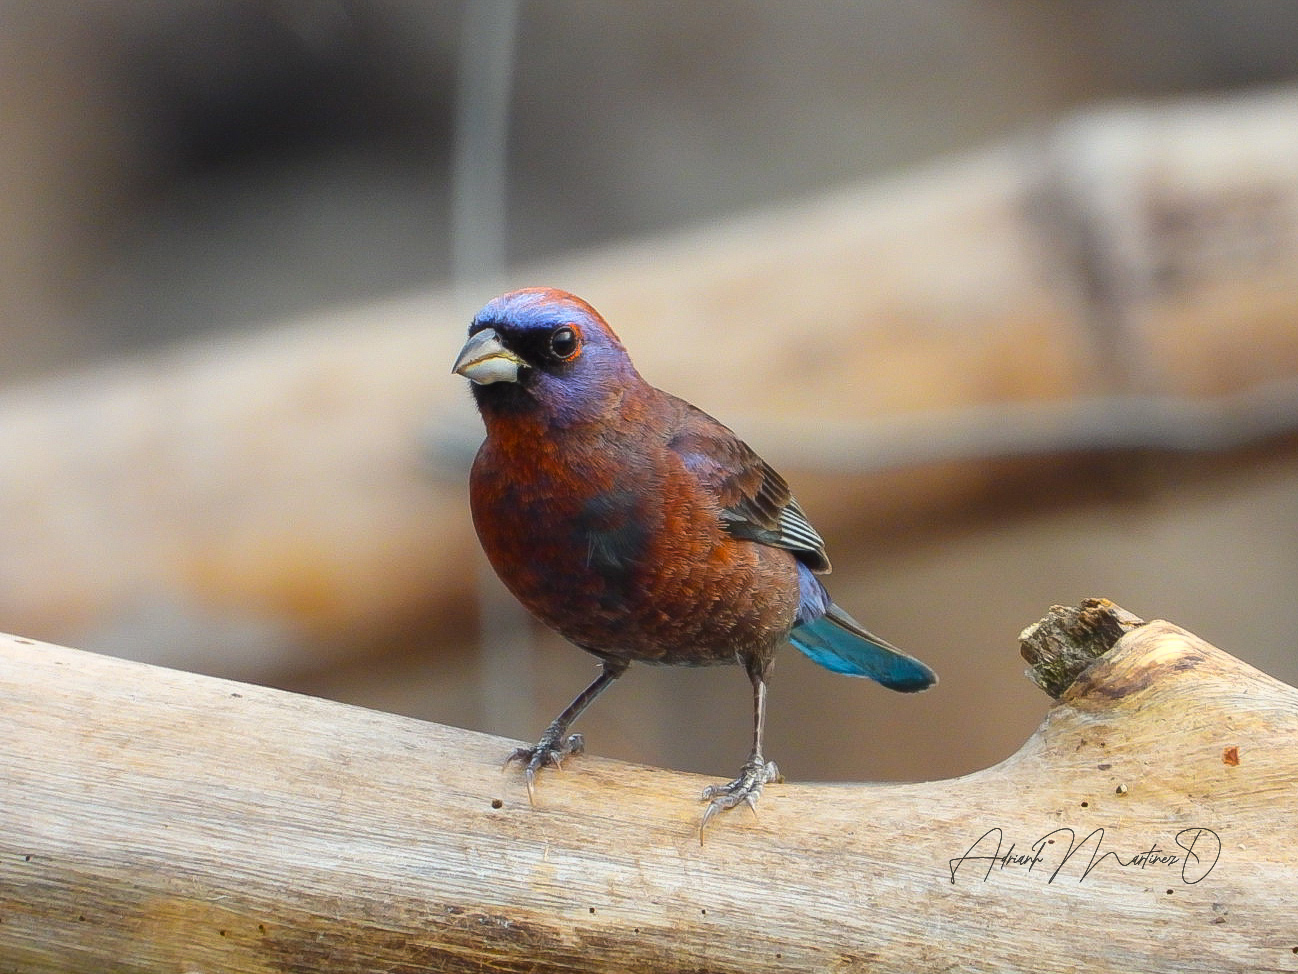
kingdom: Animalia
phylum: Chordata
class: Aves
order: Passeriformes
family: Cardinalidae
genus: Passerina
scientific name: Passerina versicolor
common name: Varied bunting
